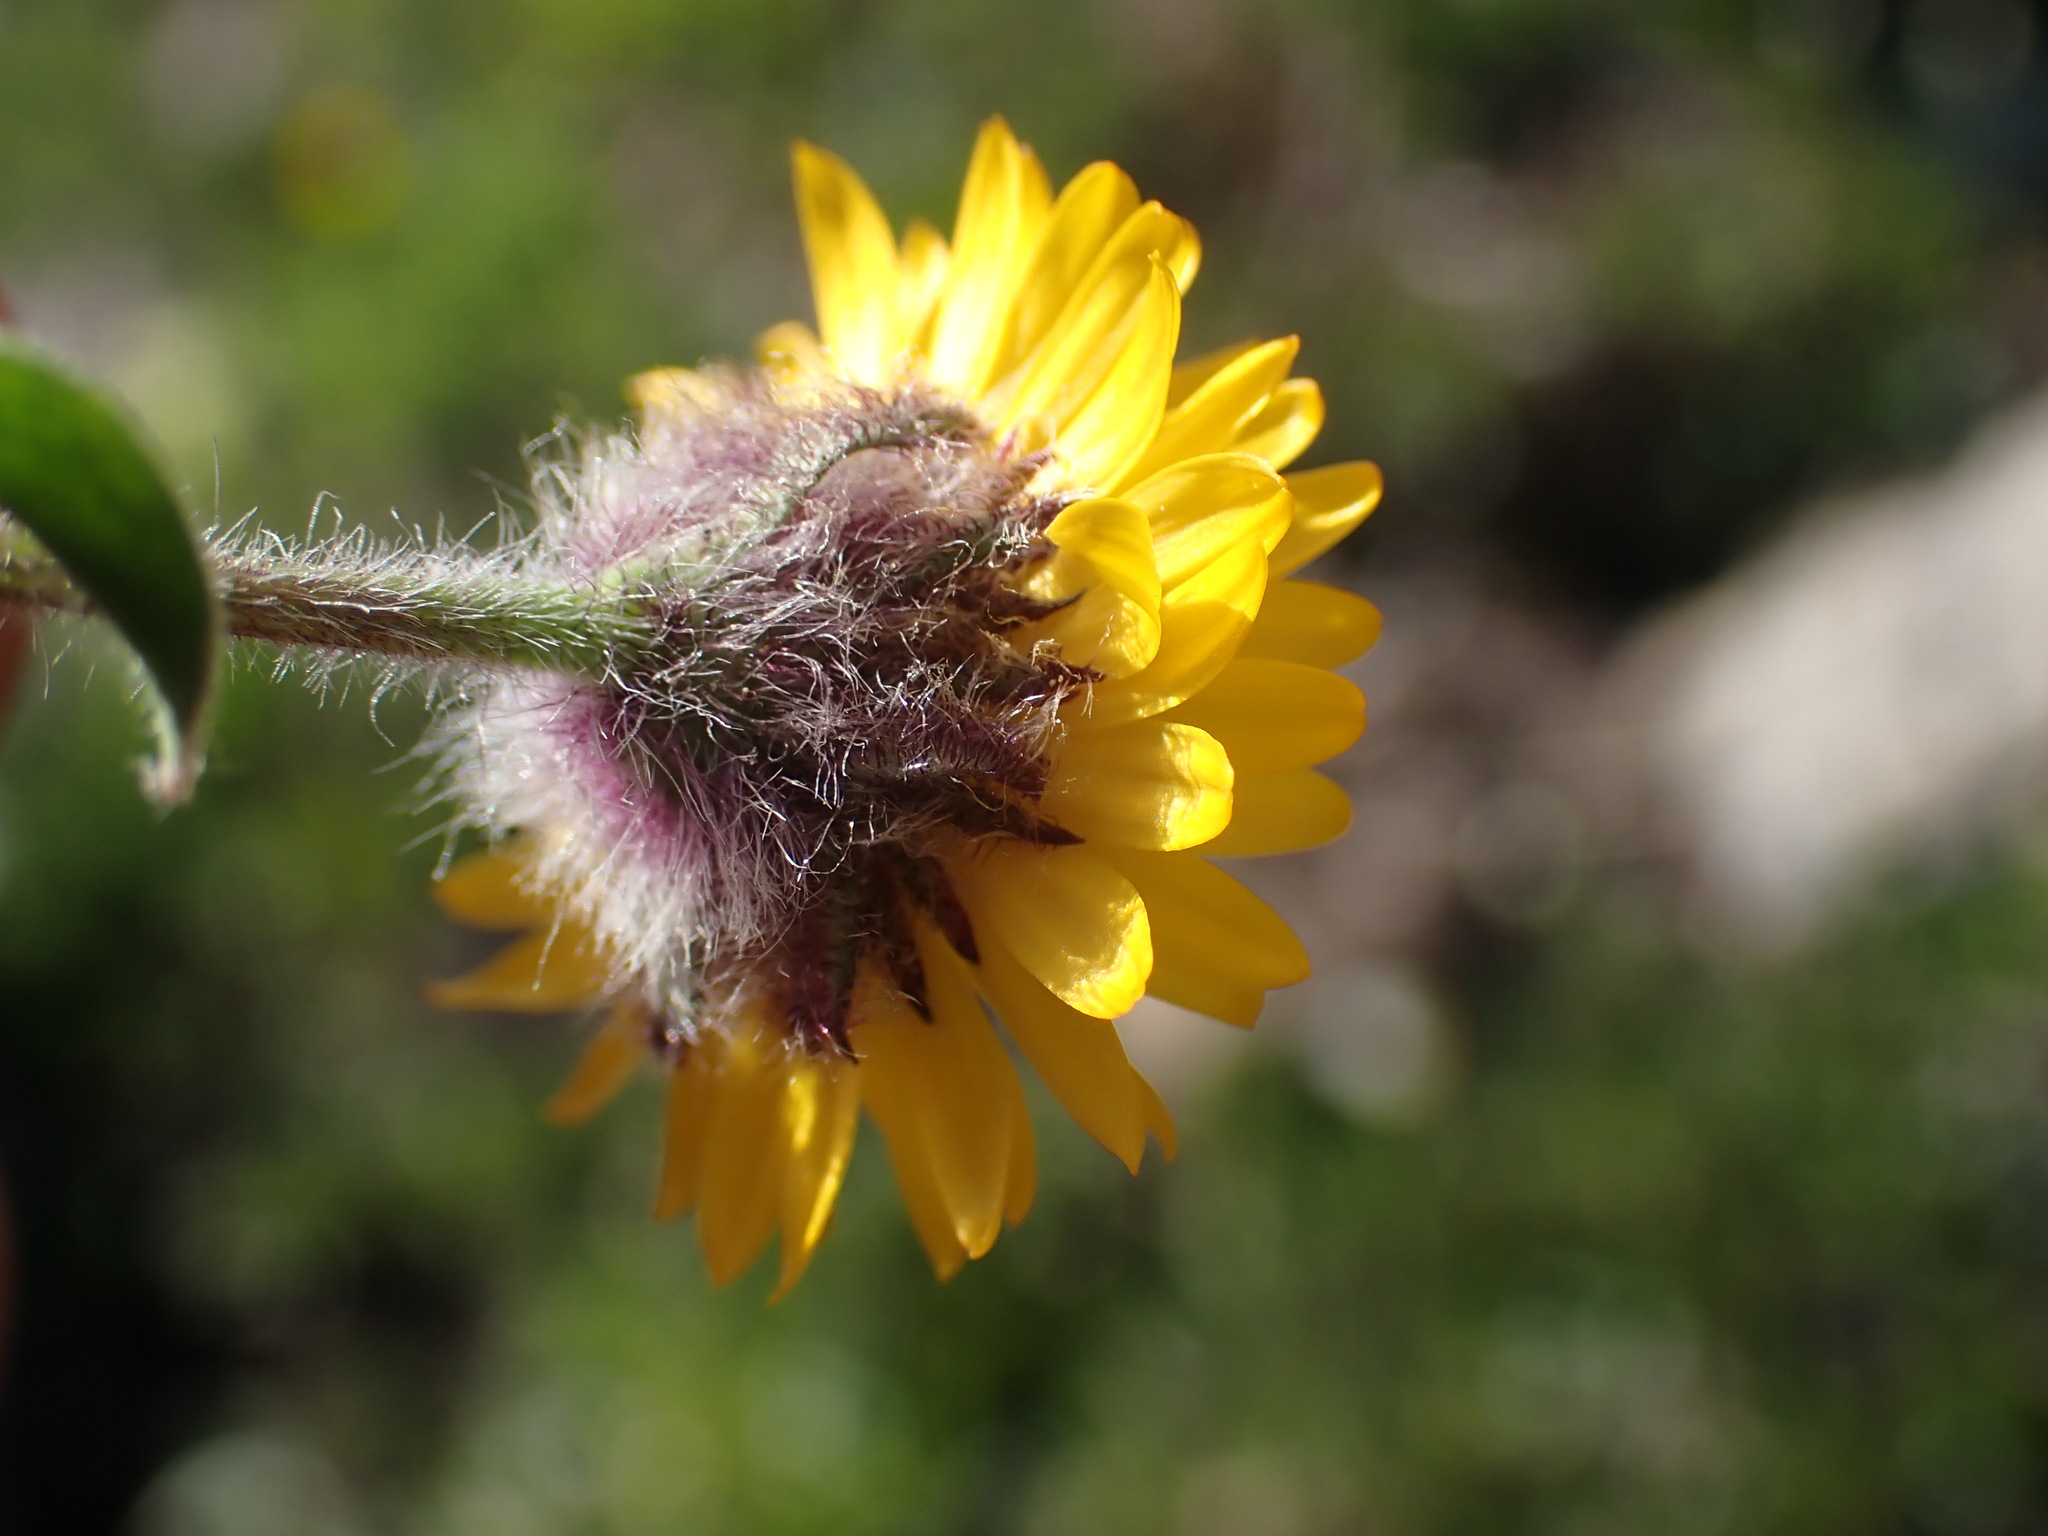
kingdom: Plantae
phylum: Tracheophyta
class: Magnoliopsida
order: Asterales
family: Asteraceae
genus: Erigeron
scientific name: Erigeron aureus
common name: Alpine yellow fleabane
